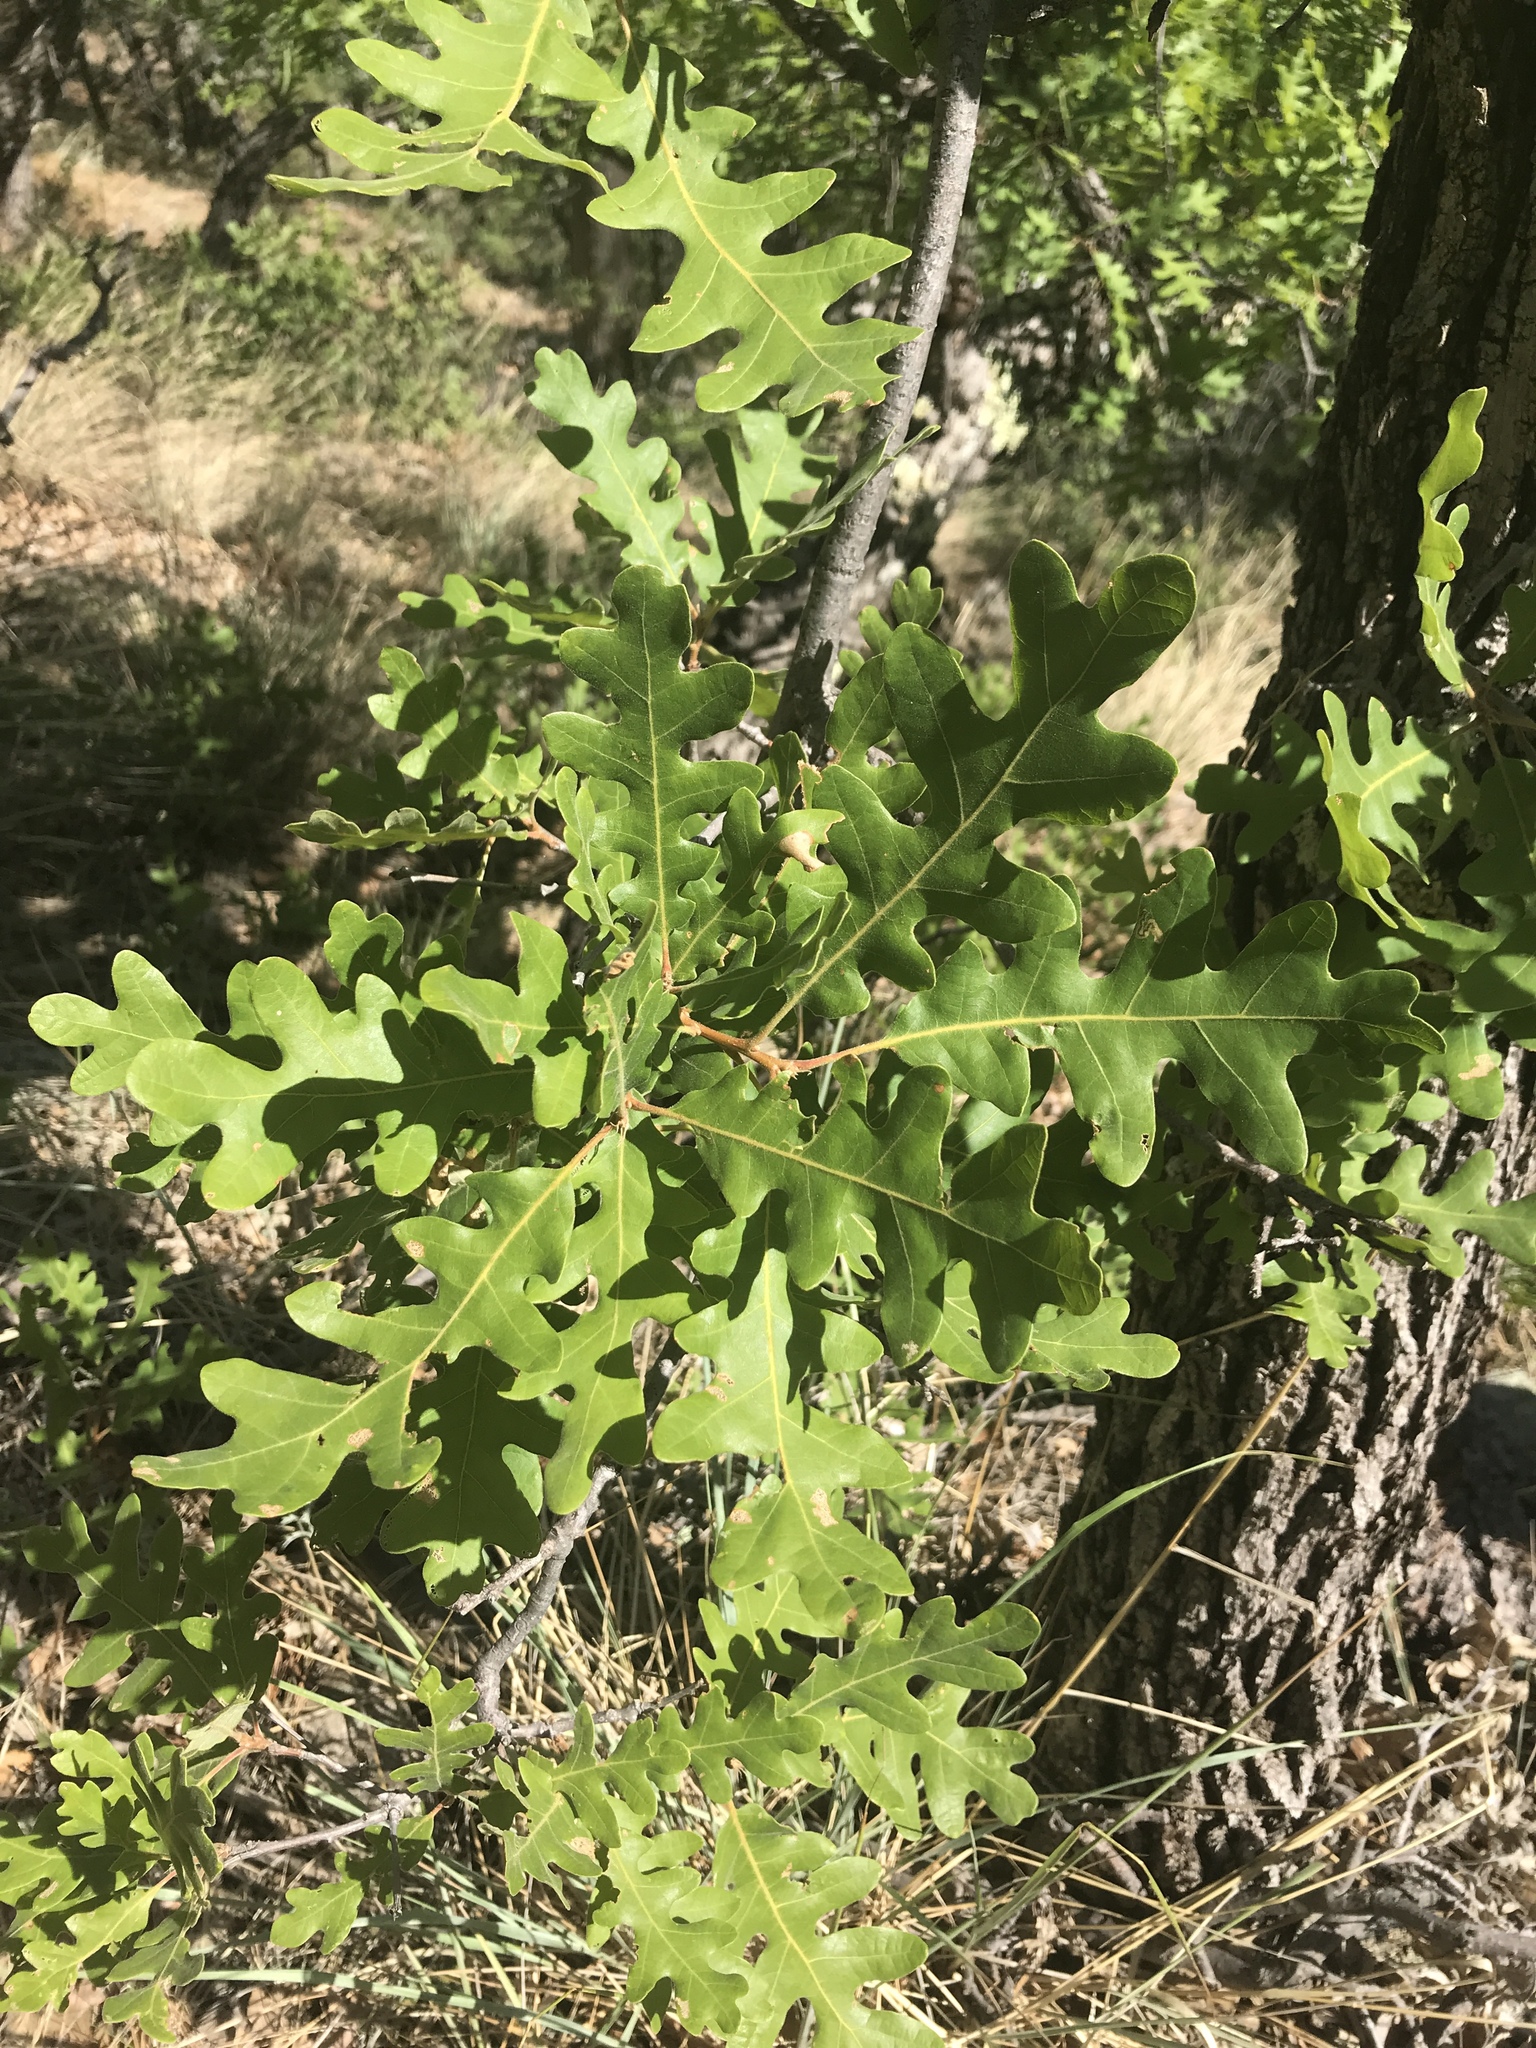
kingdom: Plantae
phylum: Tracheophyta
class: Magnoliopsida
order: Fagales
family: Fagaceae
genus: Quercus
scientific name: Quercus gambelii
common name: Gambel oak
